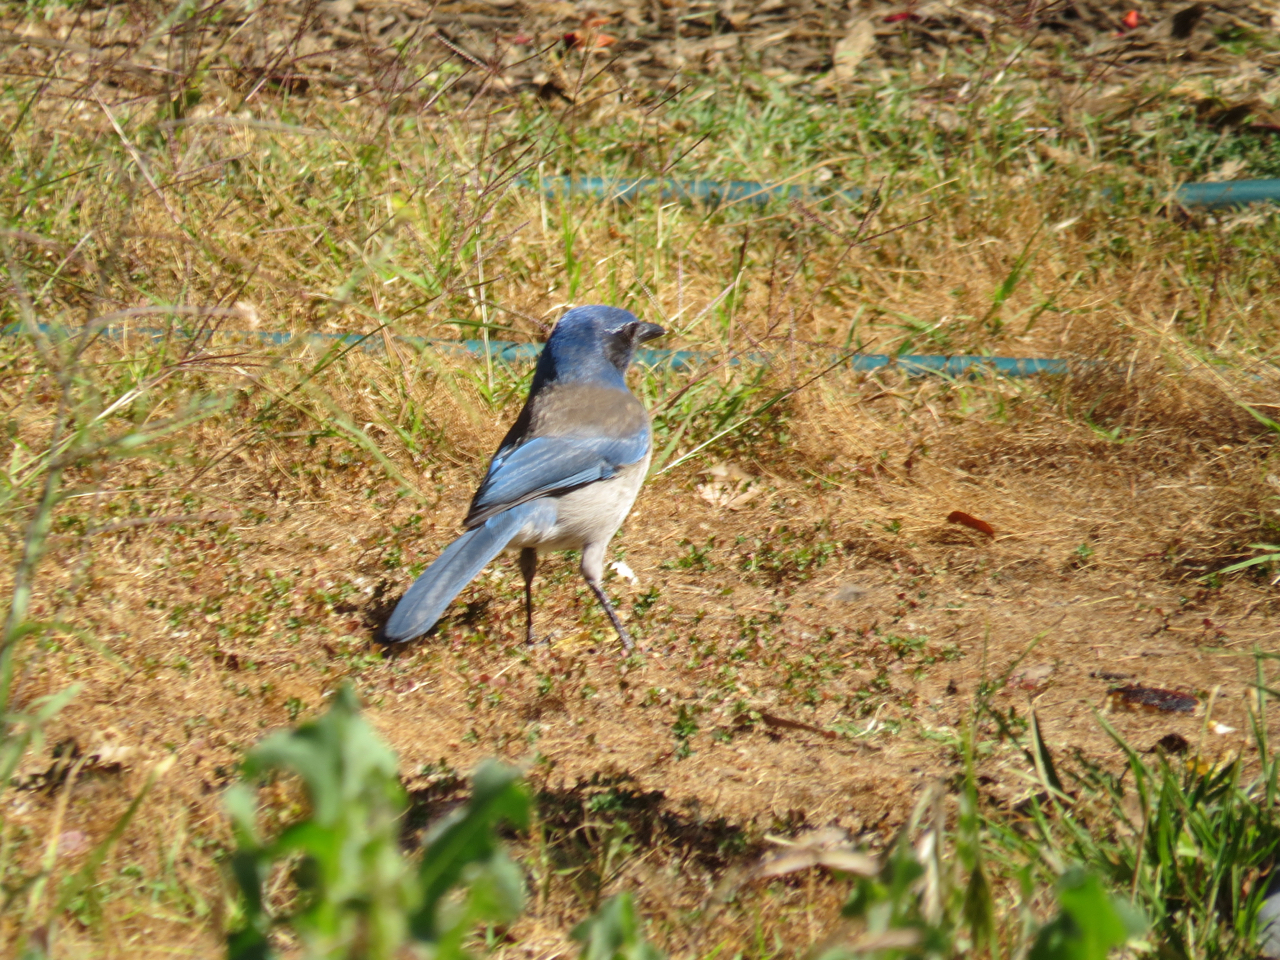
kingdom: Animalia
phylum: Chordata
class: Aves
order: Passeriformes
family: Corvidae
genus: Aphelocoma
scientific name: Aphelocoma californica
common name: California scrub-jay
